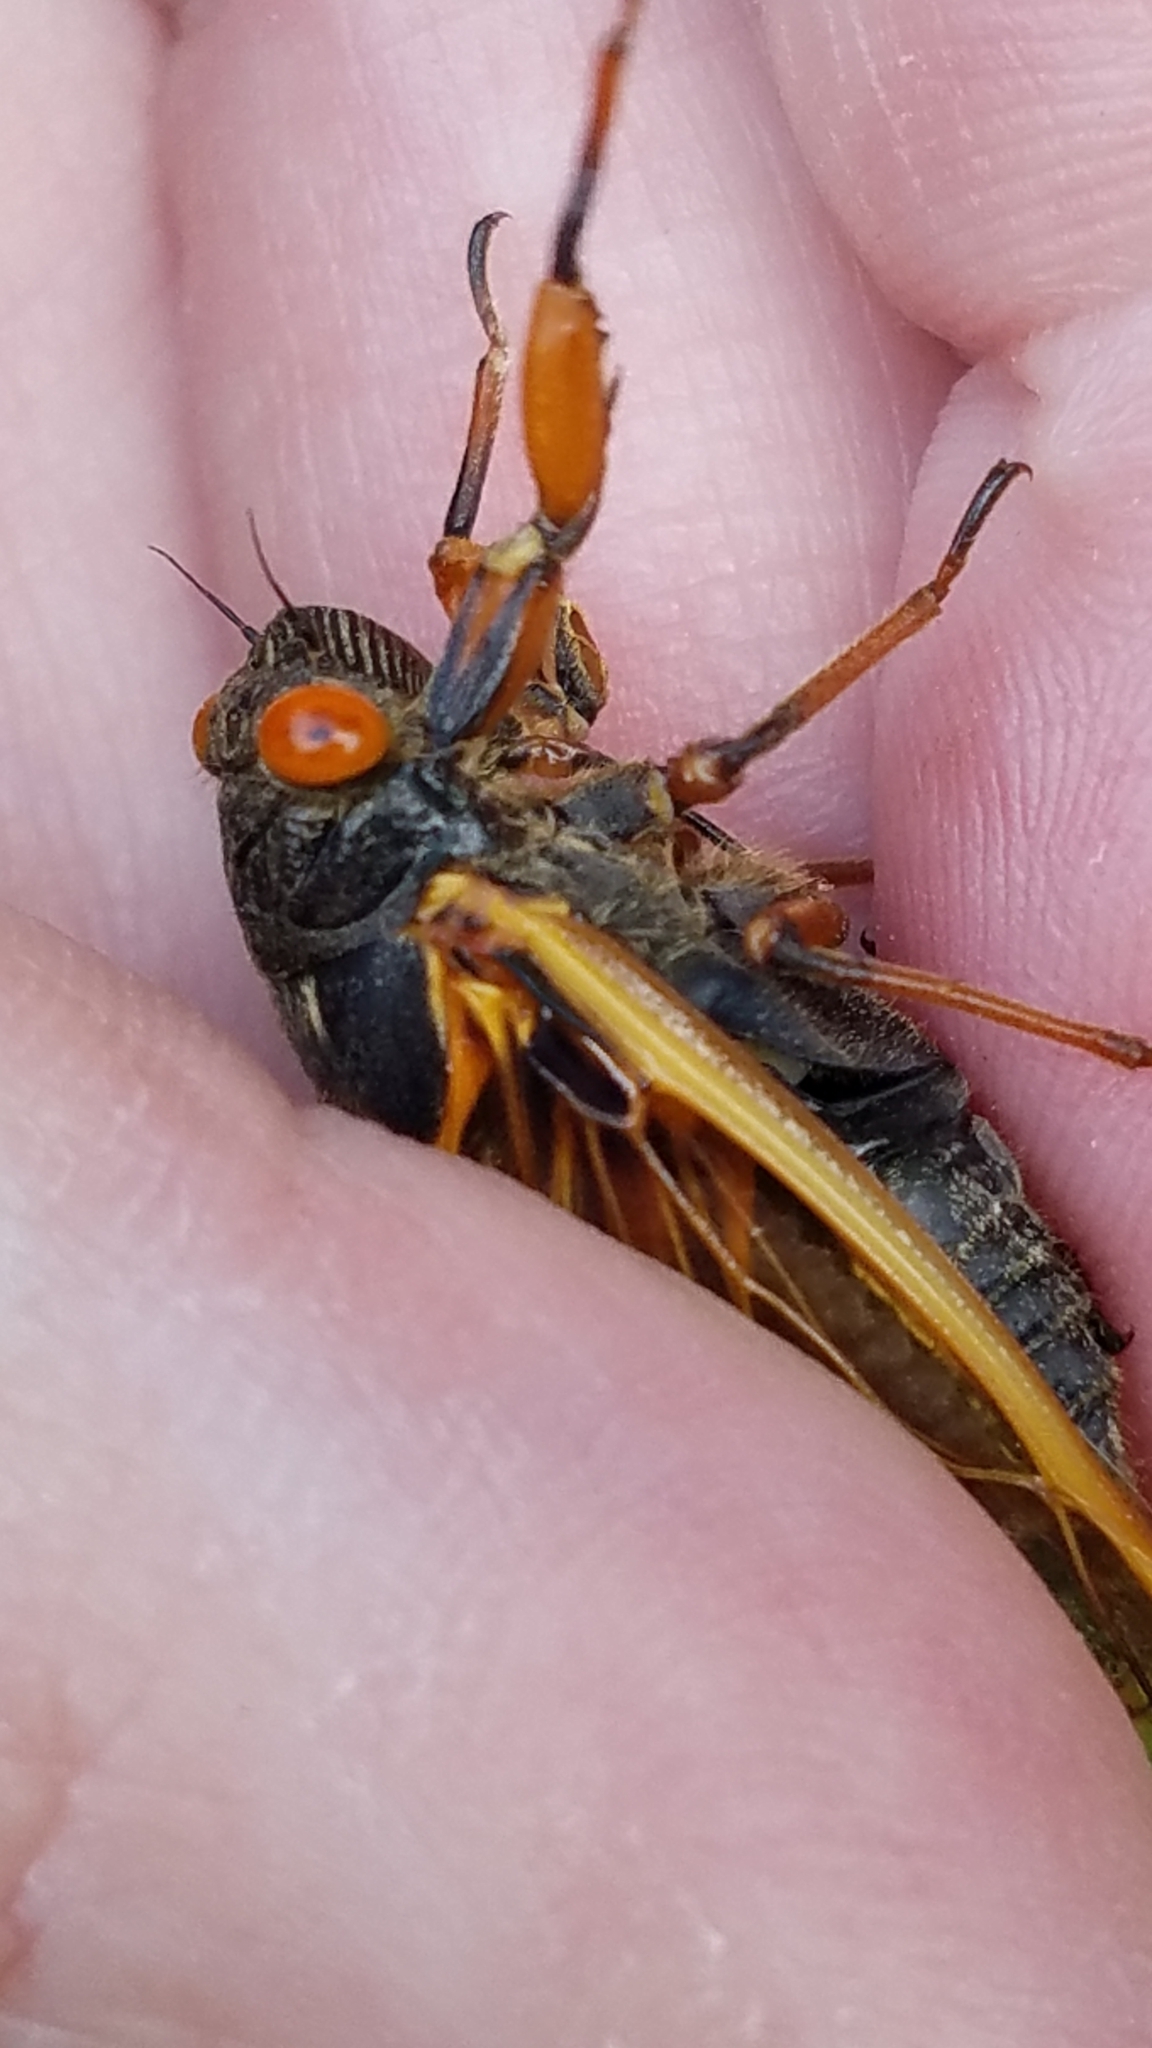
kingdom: Animalia
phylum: Arthropoda
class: Insecta
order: Hemiptera
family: Cicadidae
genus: Magicicada
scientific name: Magicicada cassini
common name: Cassin's 17-year cicada
